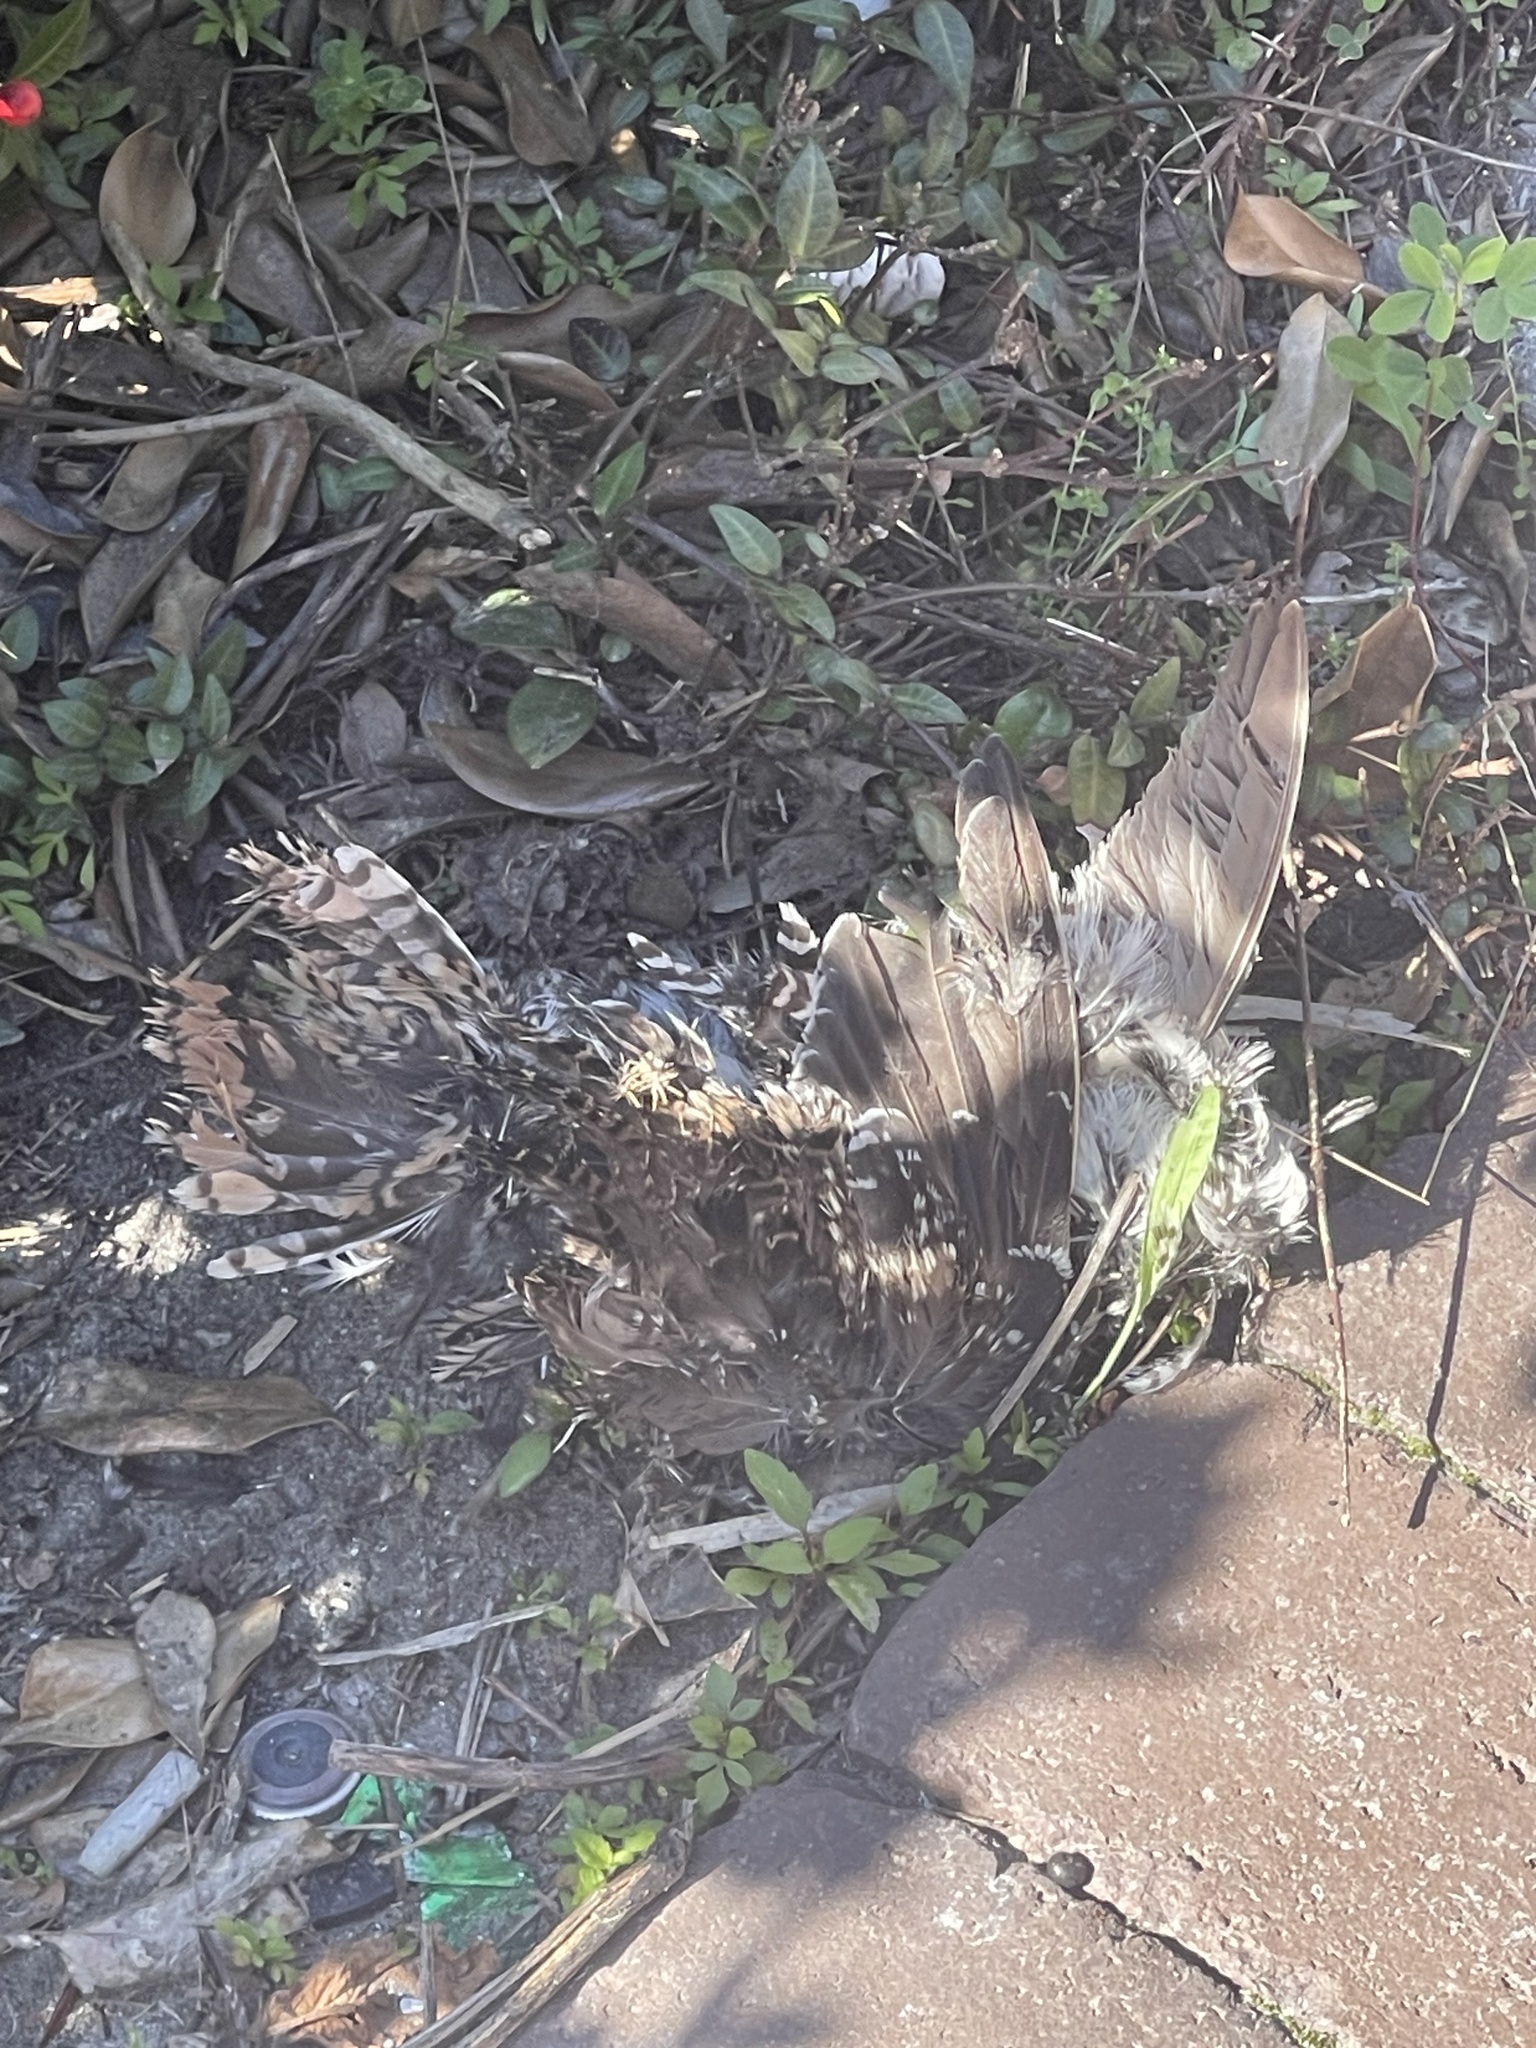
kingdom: Animalia
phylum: Chordata
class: Aves
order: Charadriiformes
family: Scolopacidae
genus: Gallinago
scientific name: Gallinago delicata
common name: Wilson's snipe
